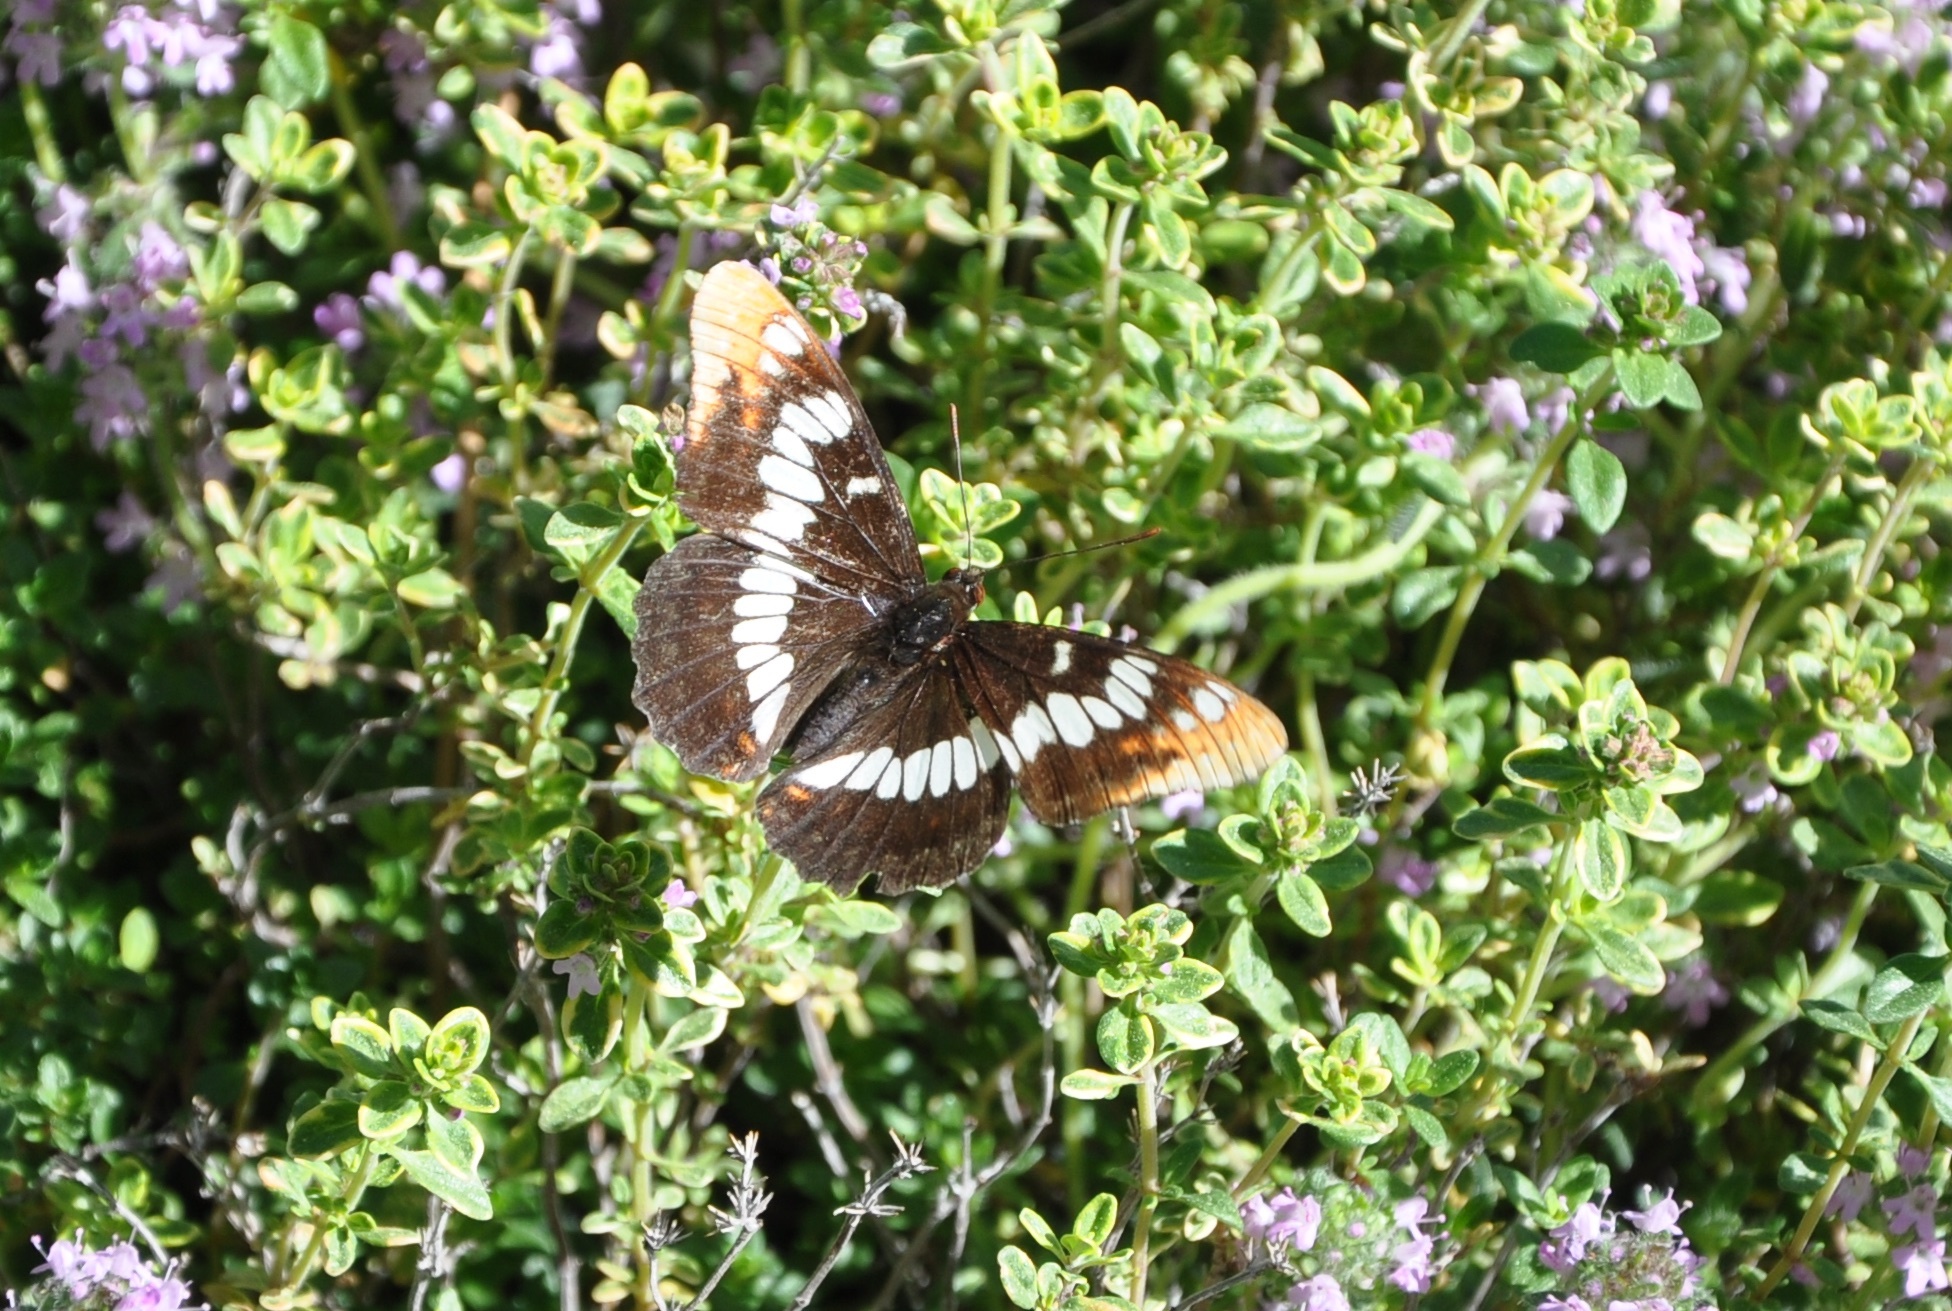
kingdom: Animalia
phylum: Arthropoda
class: Insecta
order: Lepidoptera
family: Nymphalidae
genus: Limenitis
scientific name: Limenitis lorquini
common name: Lorquin's admiral
